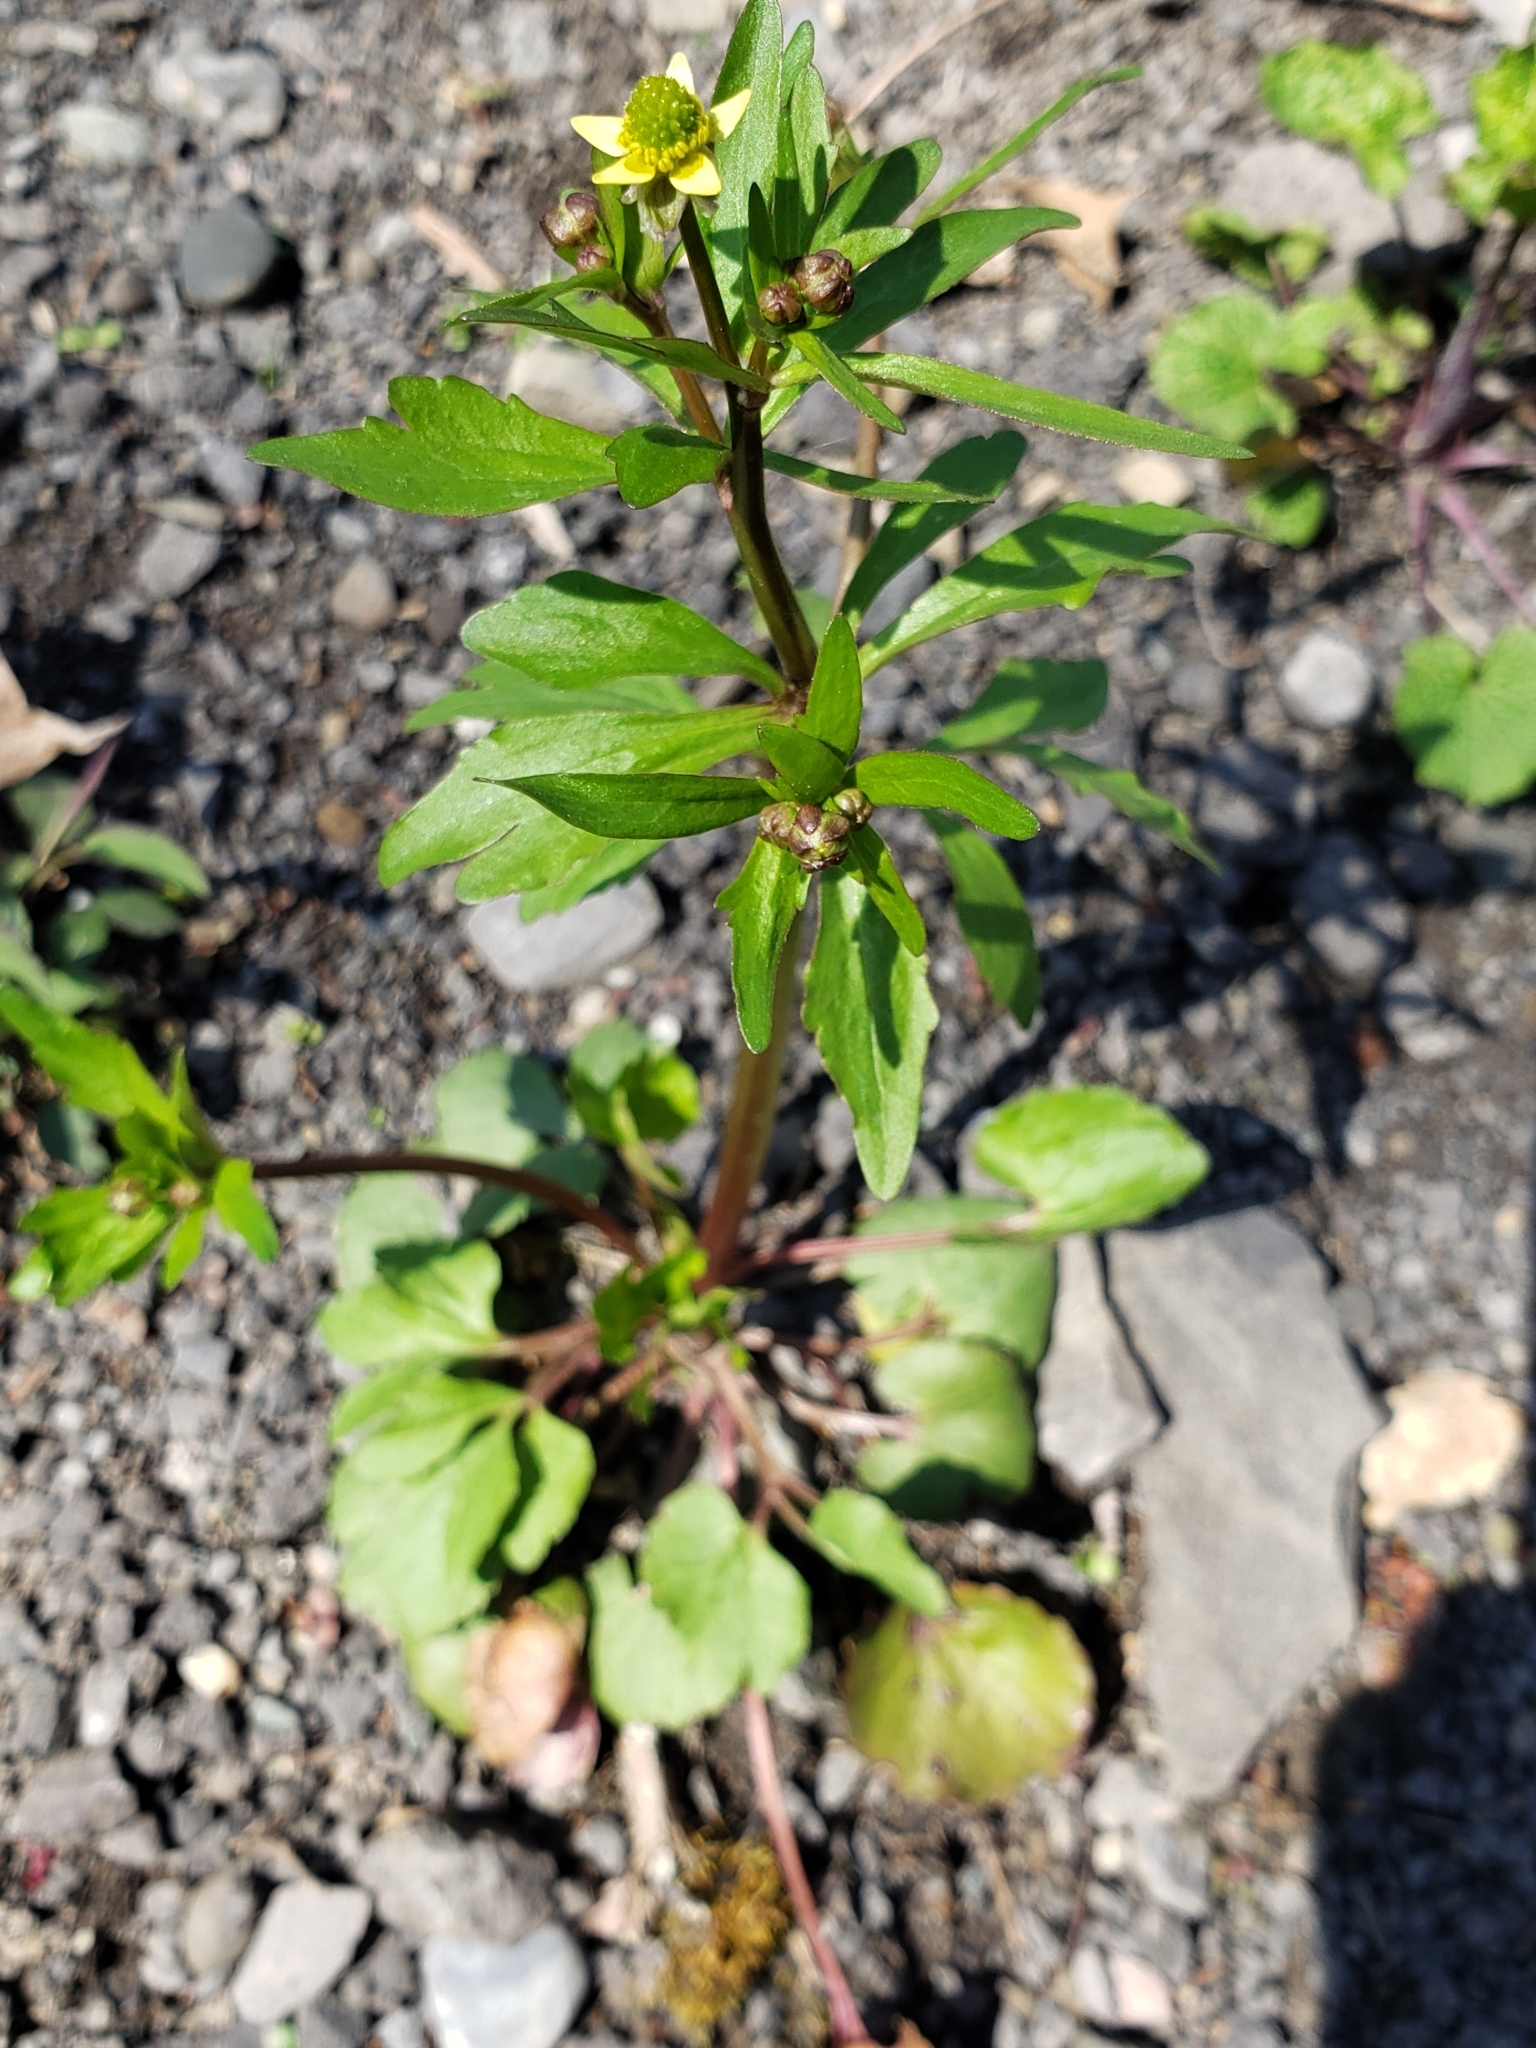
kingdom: Plantae
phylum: Tracheophyta
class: Magnoliopsida
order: Ranunculales
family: Ranunculaceae
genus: Ranunculus
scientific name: Ranunculus abortivus
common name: Early wood buttercup
